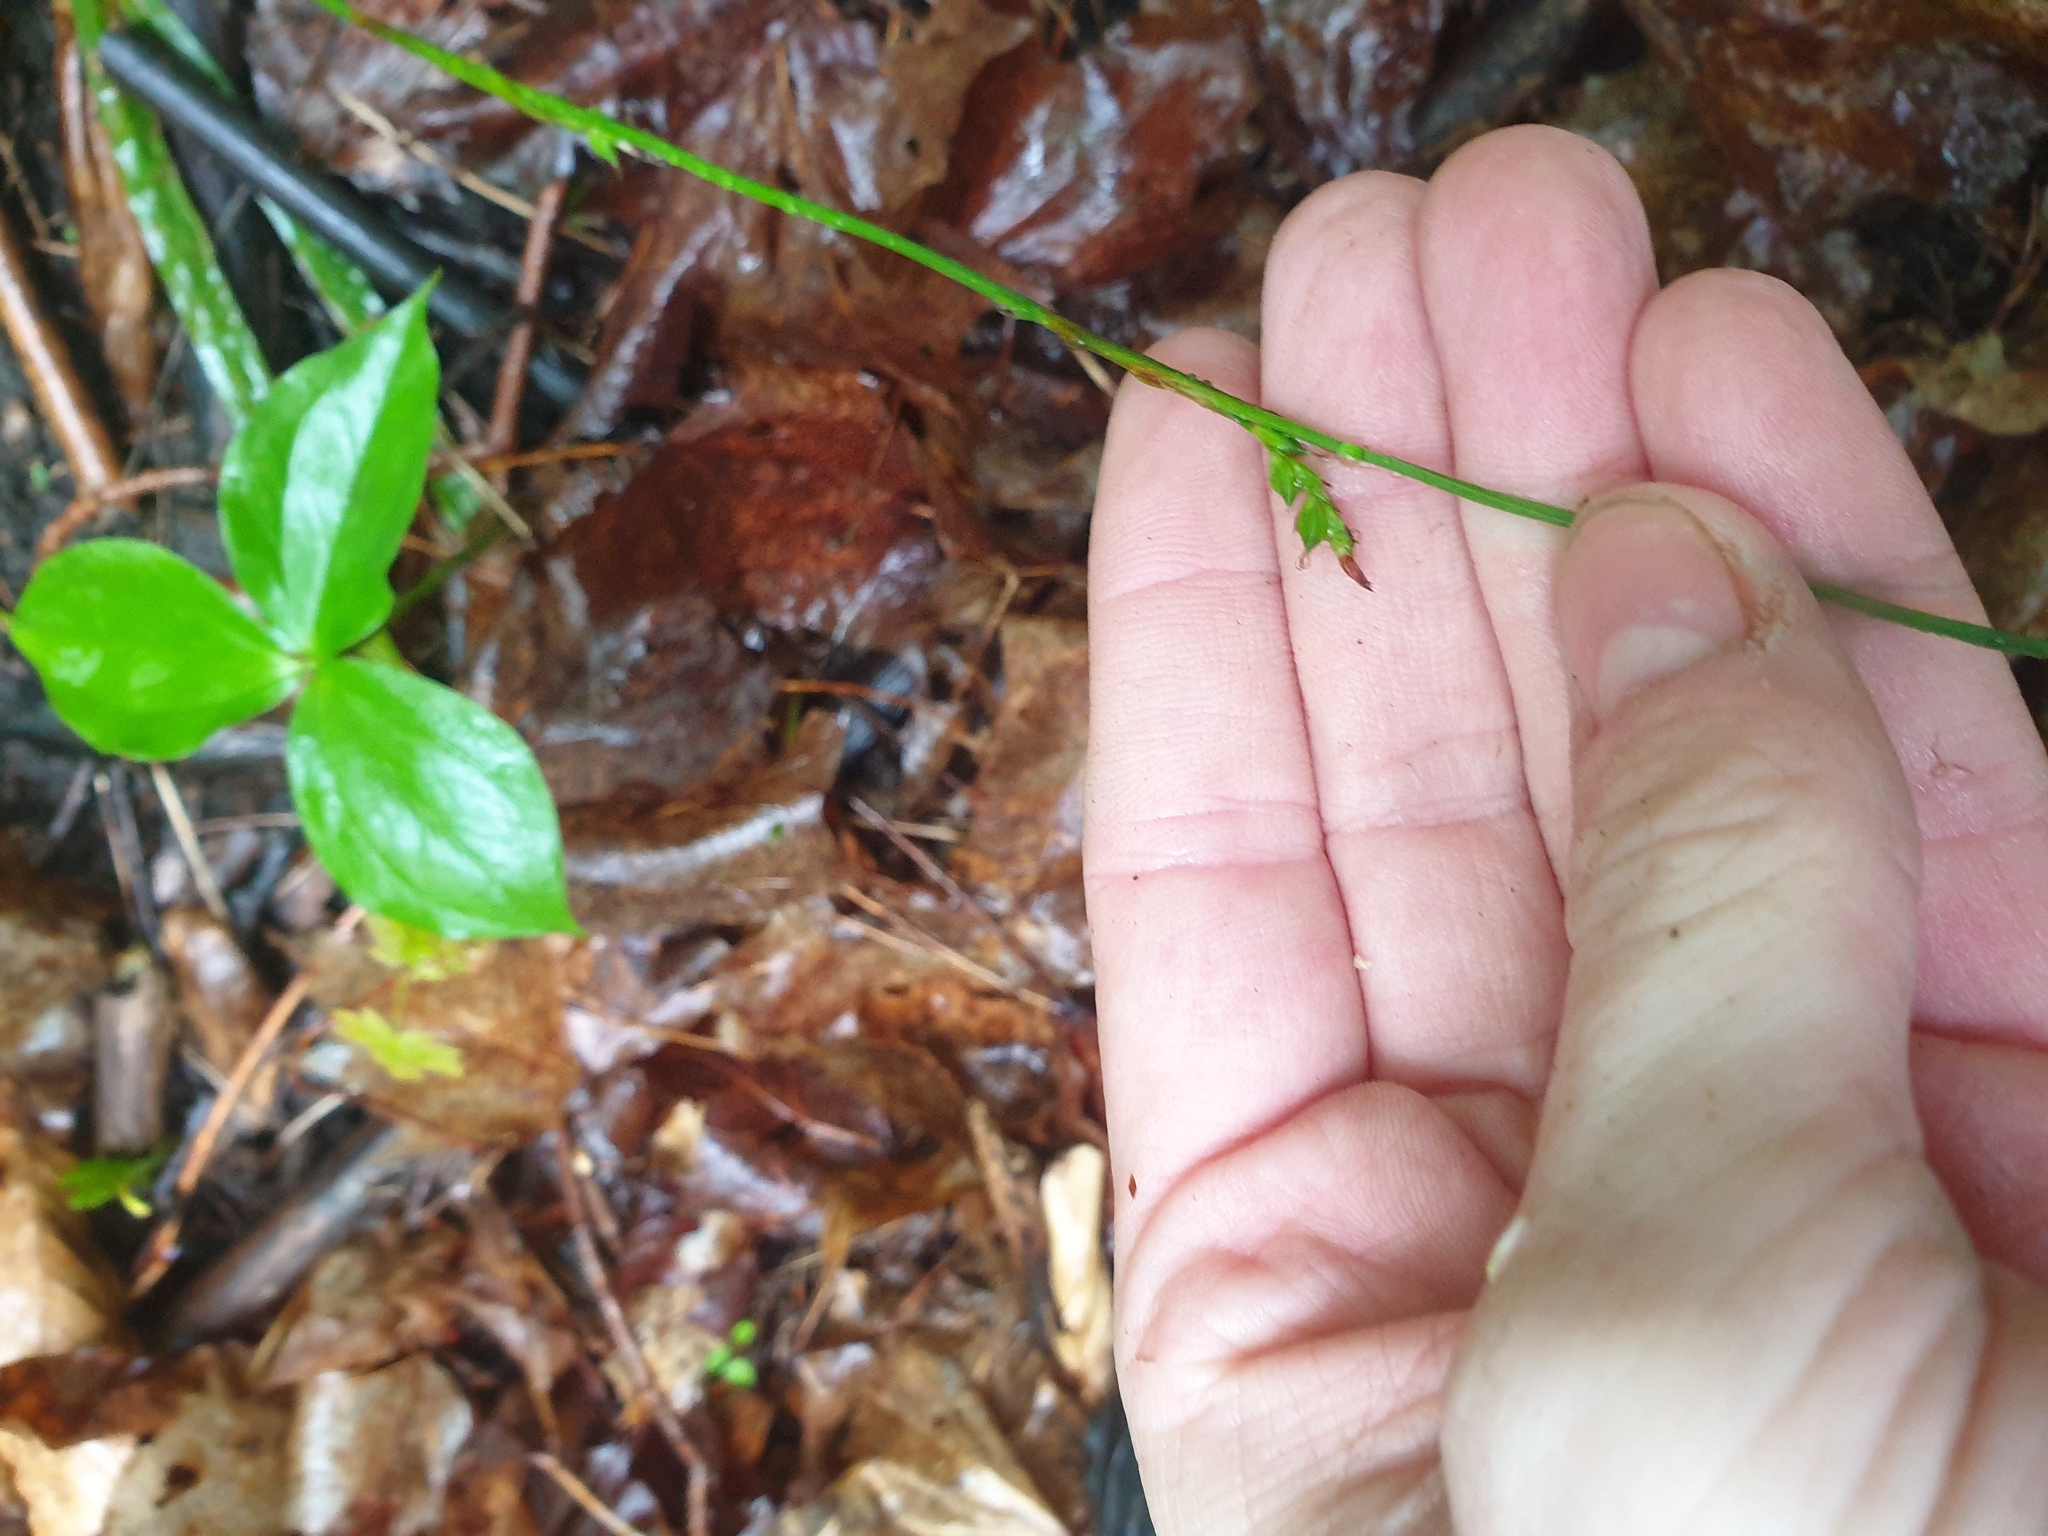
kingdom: Plantae
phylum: Tracheophyta
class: Liliopsida
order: Poales
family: Cyperaceae
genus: Carex
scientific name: Carex plantaginea
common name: Plantain-leaved sedge
